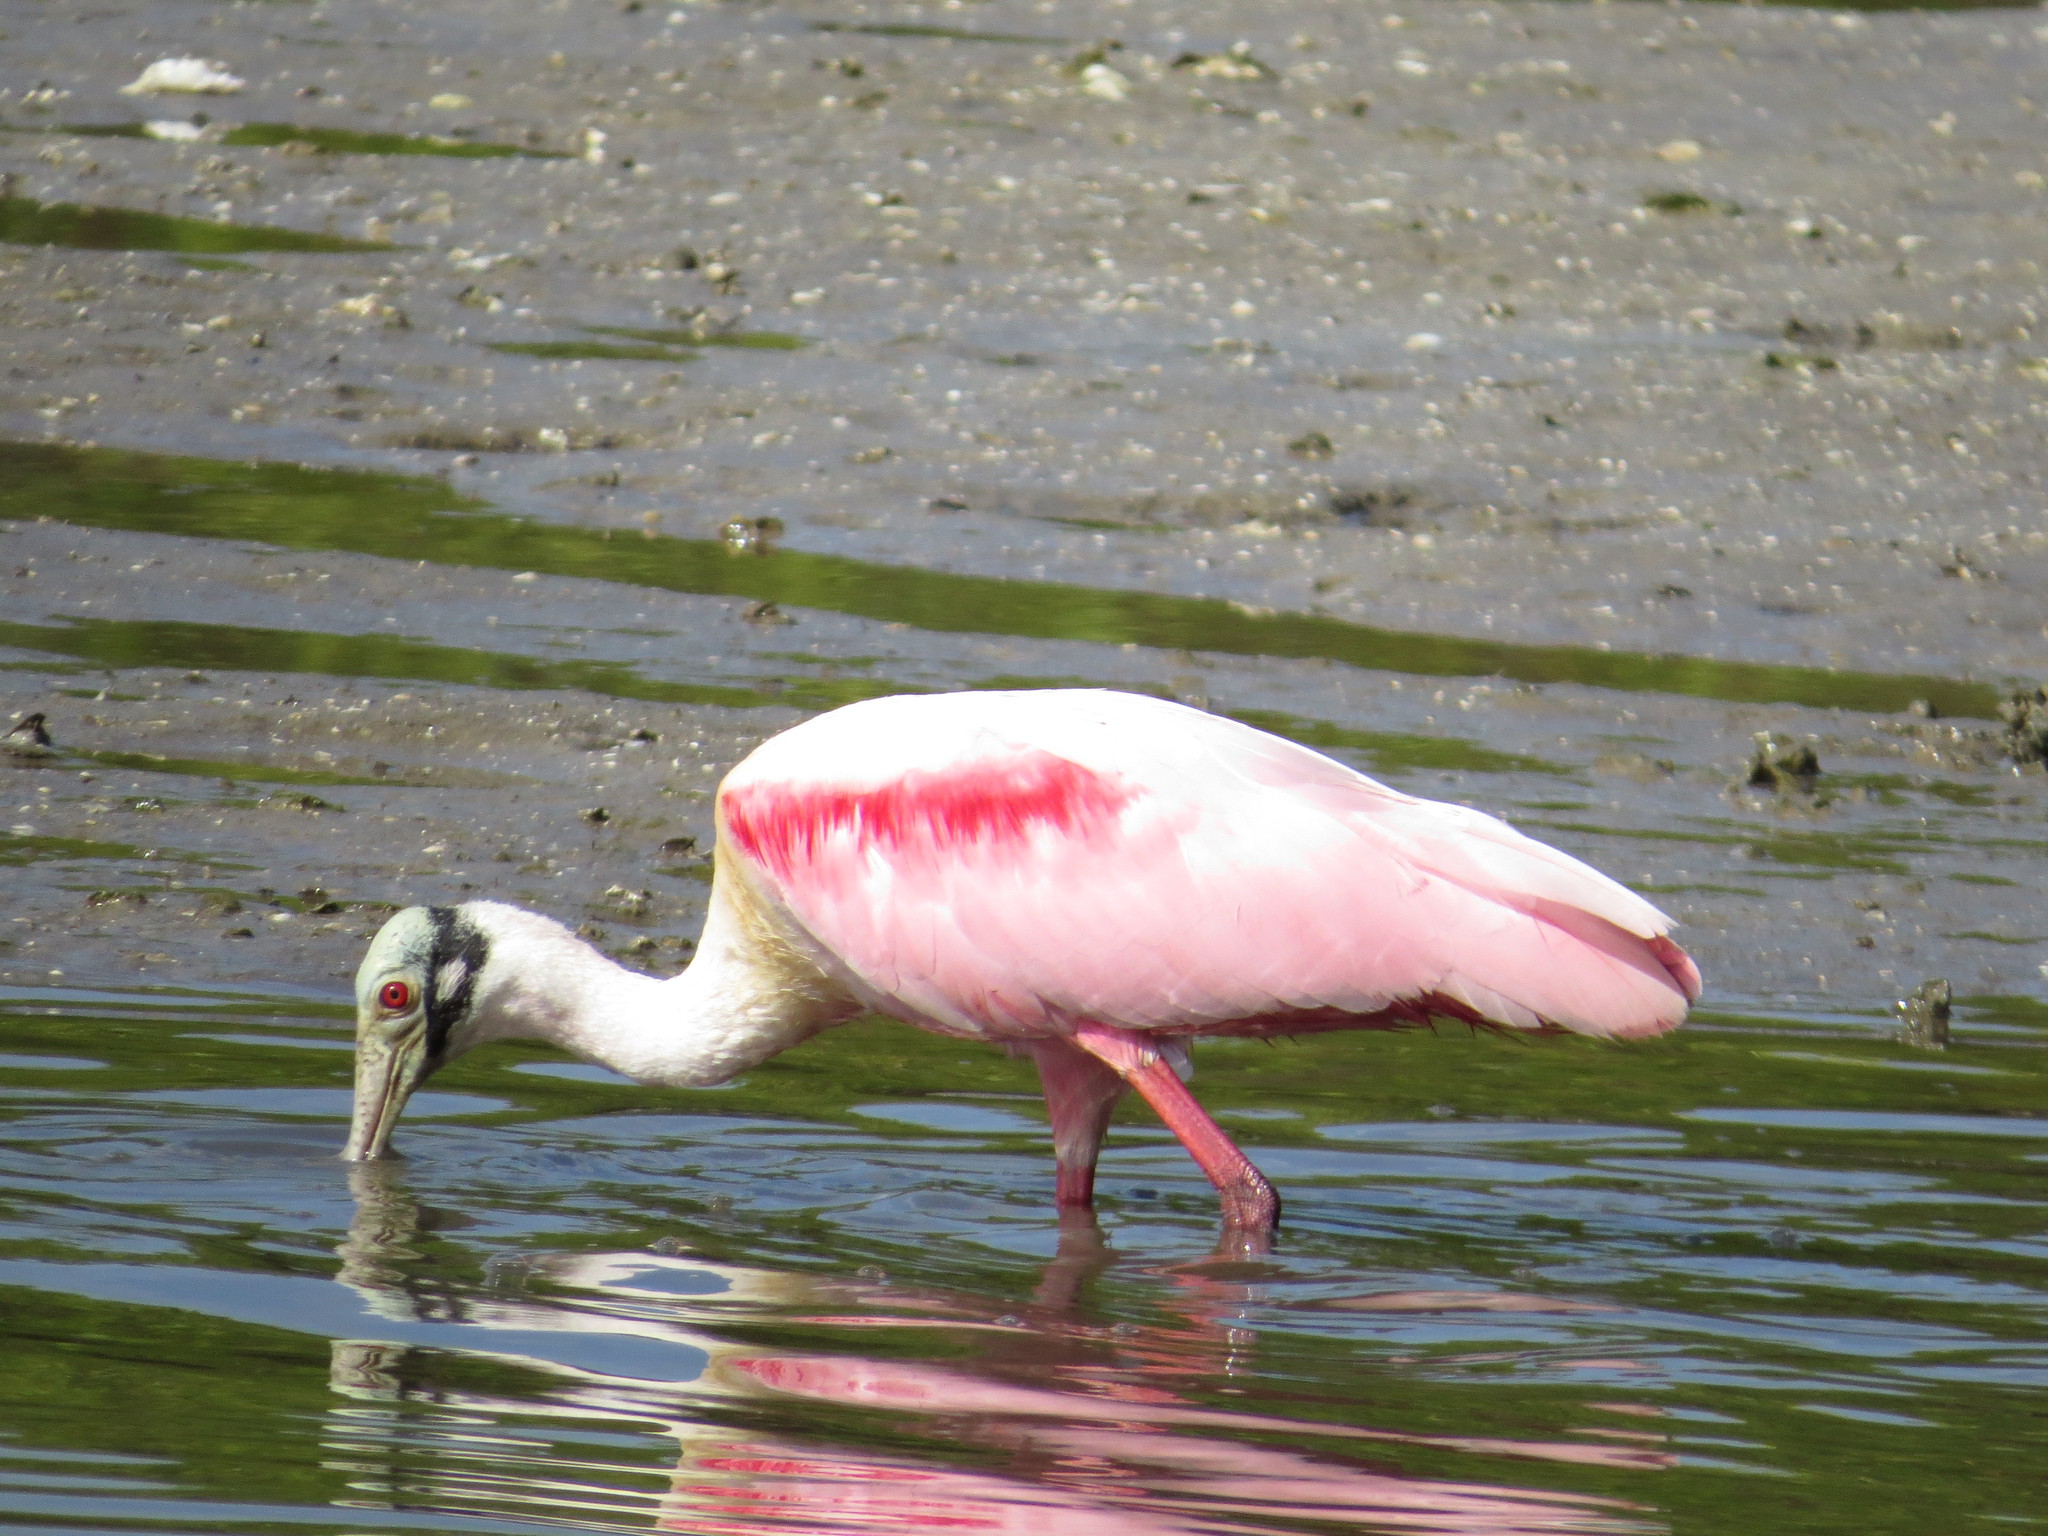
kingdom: Animalia
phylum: Chordata
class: Aves
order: Pelecaniformes
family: Threskiornithidae
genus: Platalea
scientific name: Platalea ajaja
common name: Roseate spoonbill
